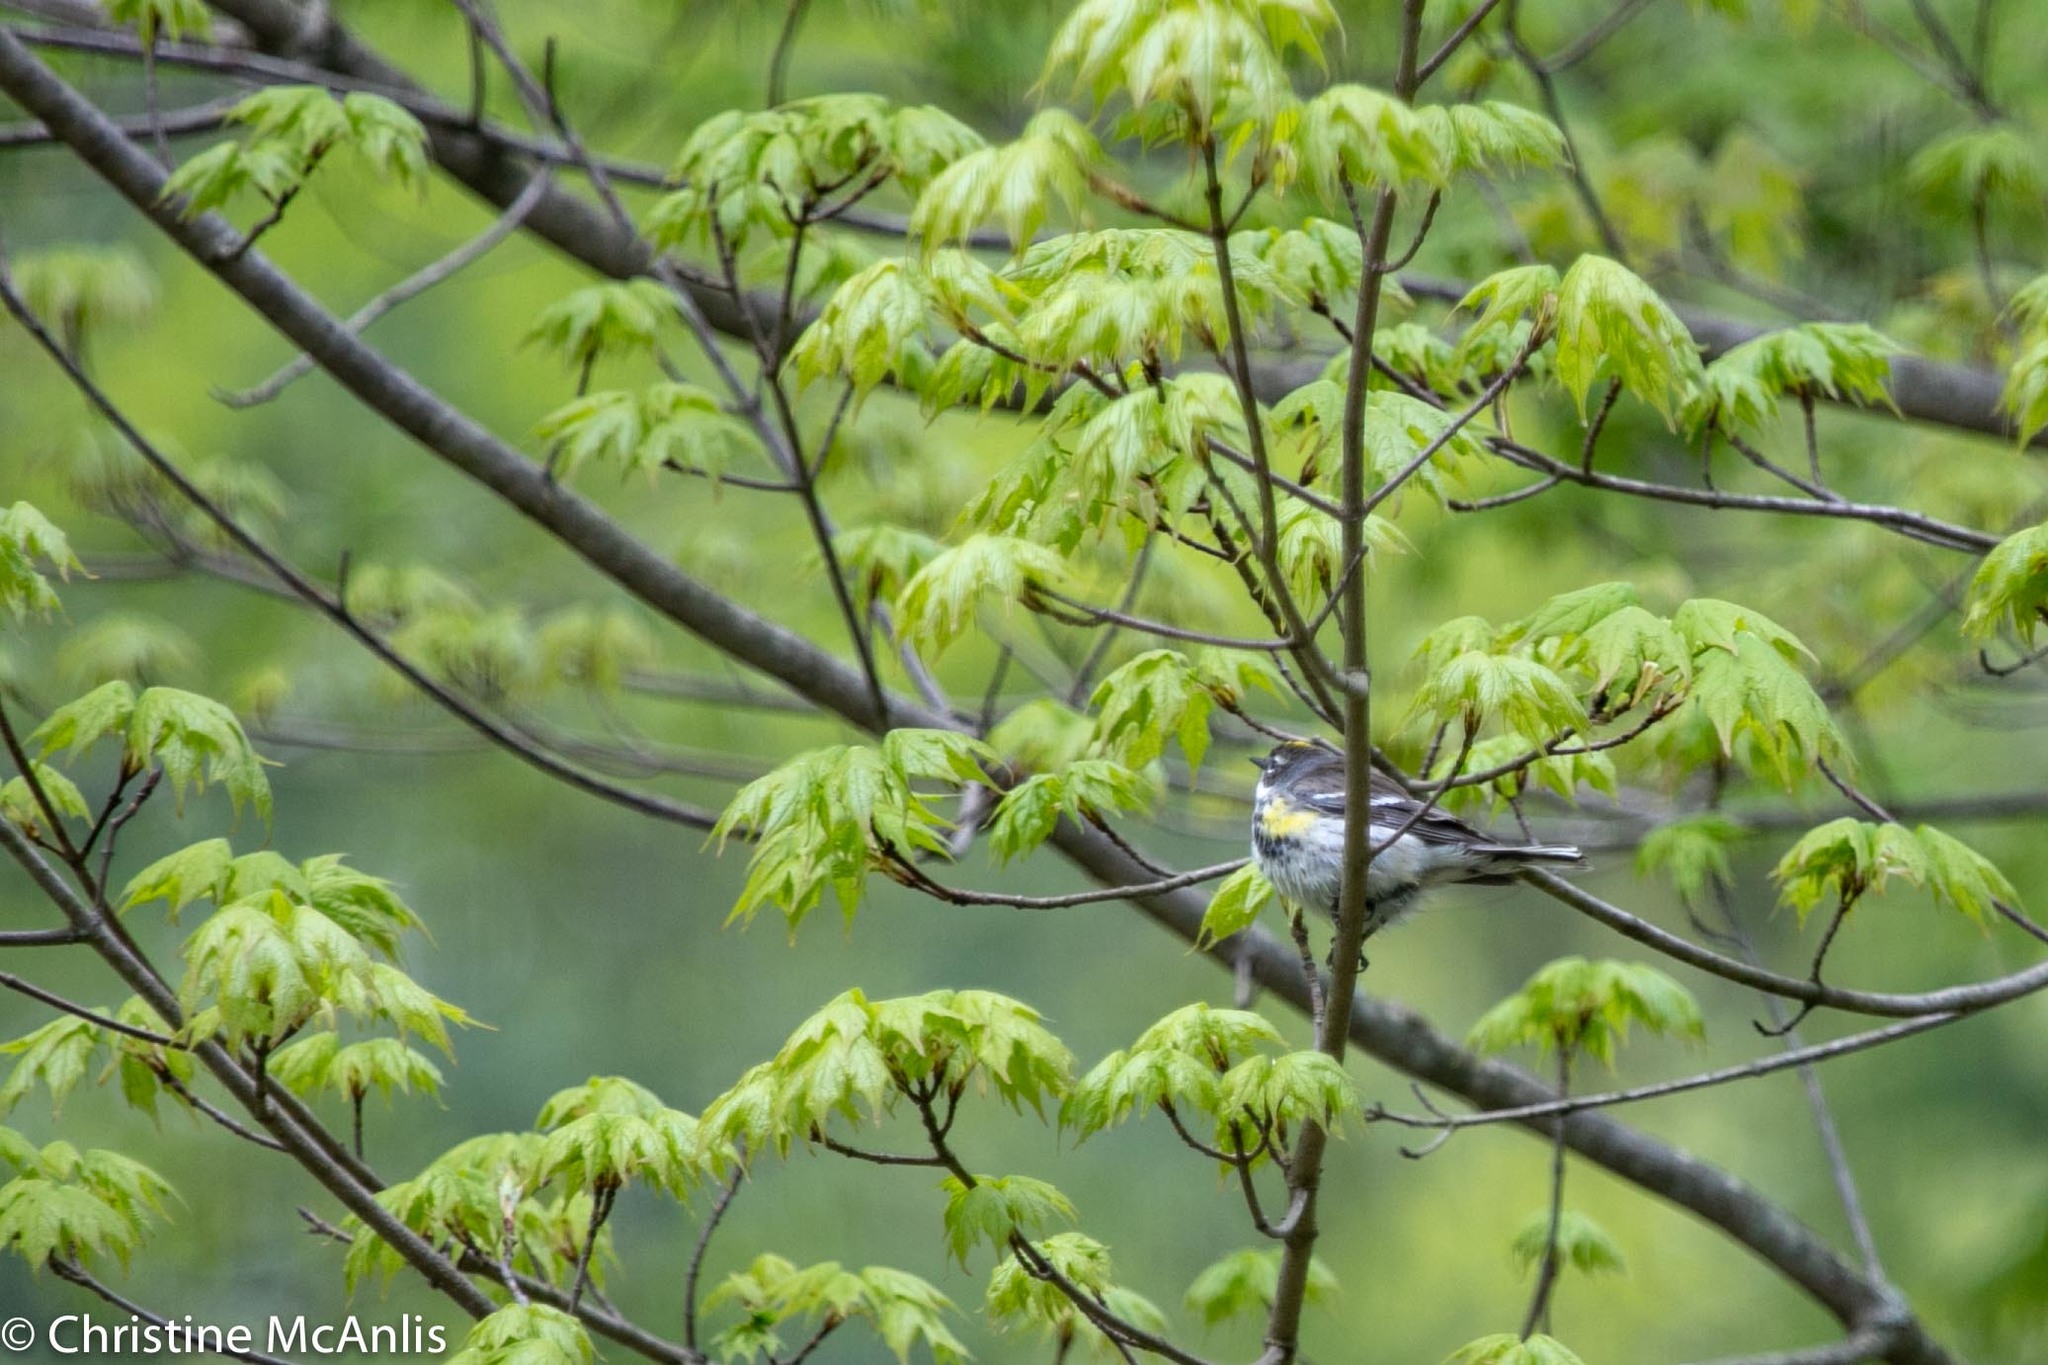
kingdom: Animalia
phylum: Chordata
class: Aves
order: Passeriformes
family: Parulidae
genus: Setophaga
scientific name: Setophaga coronata
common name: Myrtle warbler
